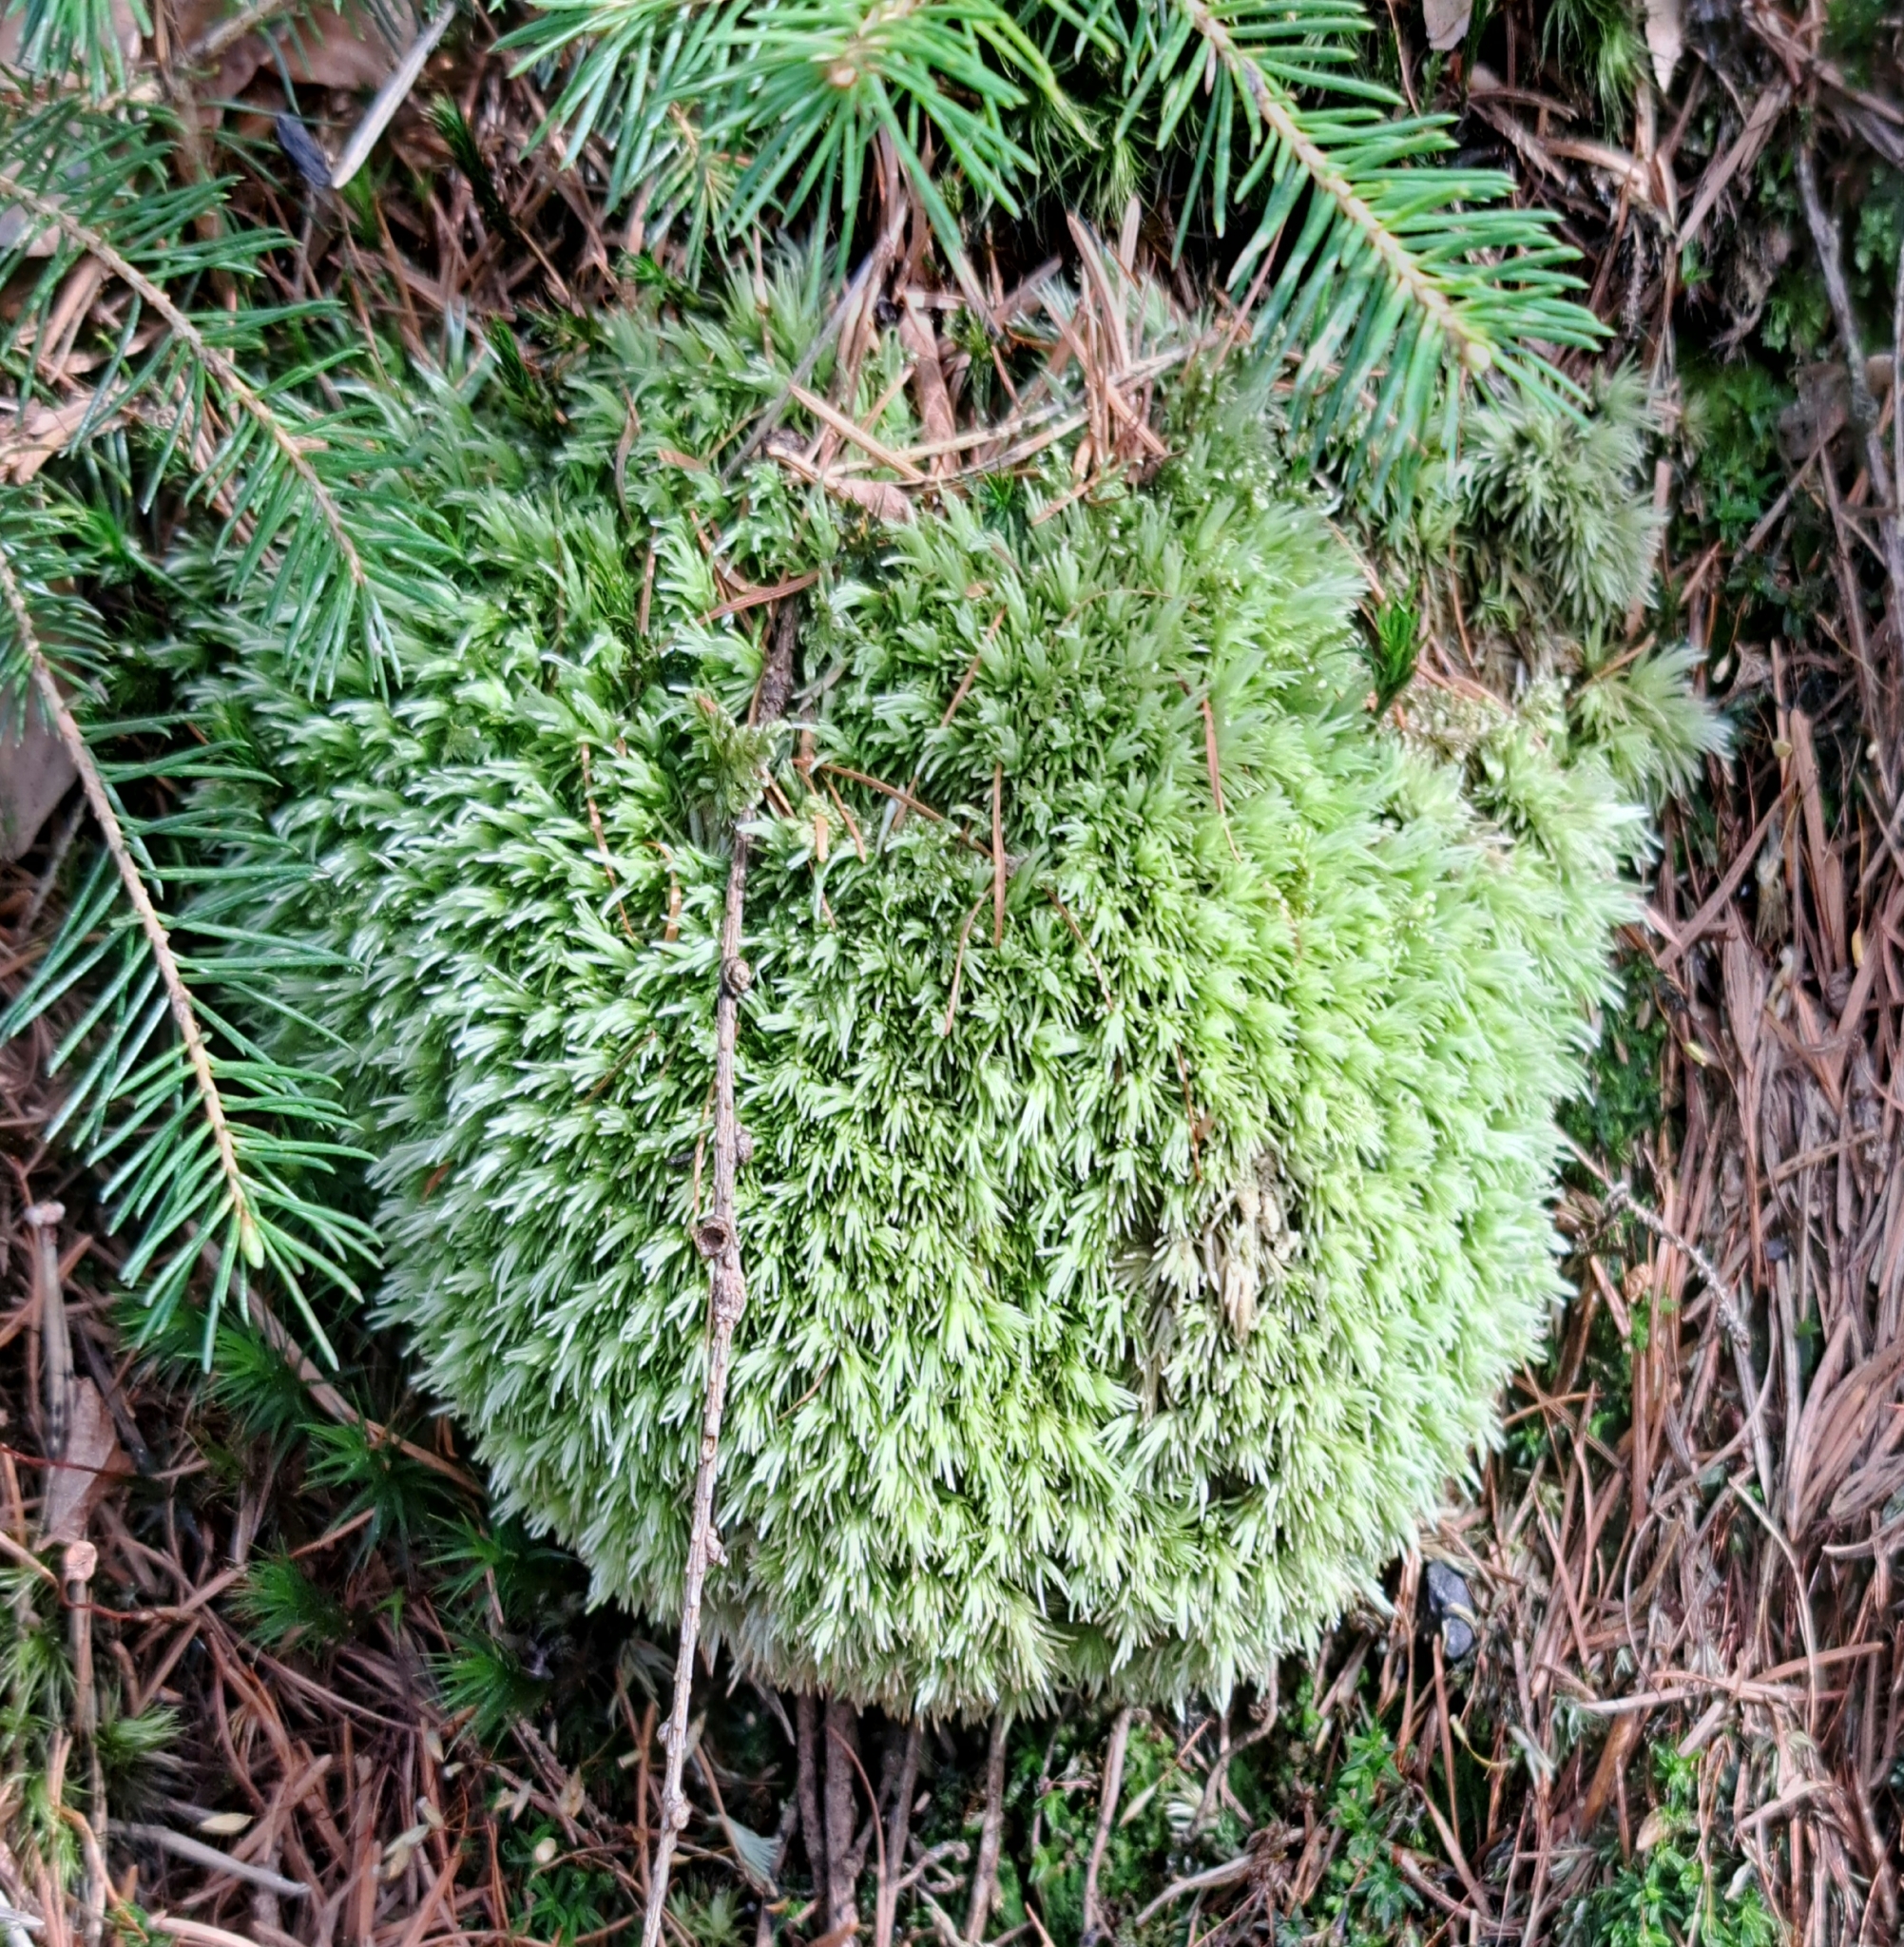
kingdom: Plantae
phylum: Bryophyta
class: Bryopsida
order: Dicranales
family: Leucobryaceae
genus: Leucobryum
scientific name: Leucobryum glaucum
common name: Large white-moss
